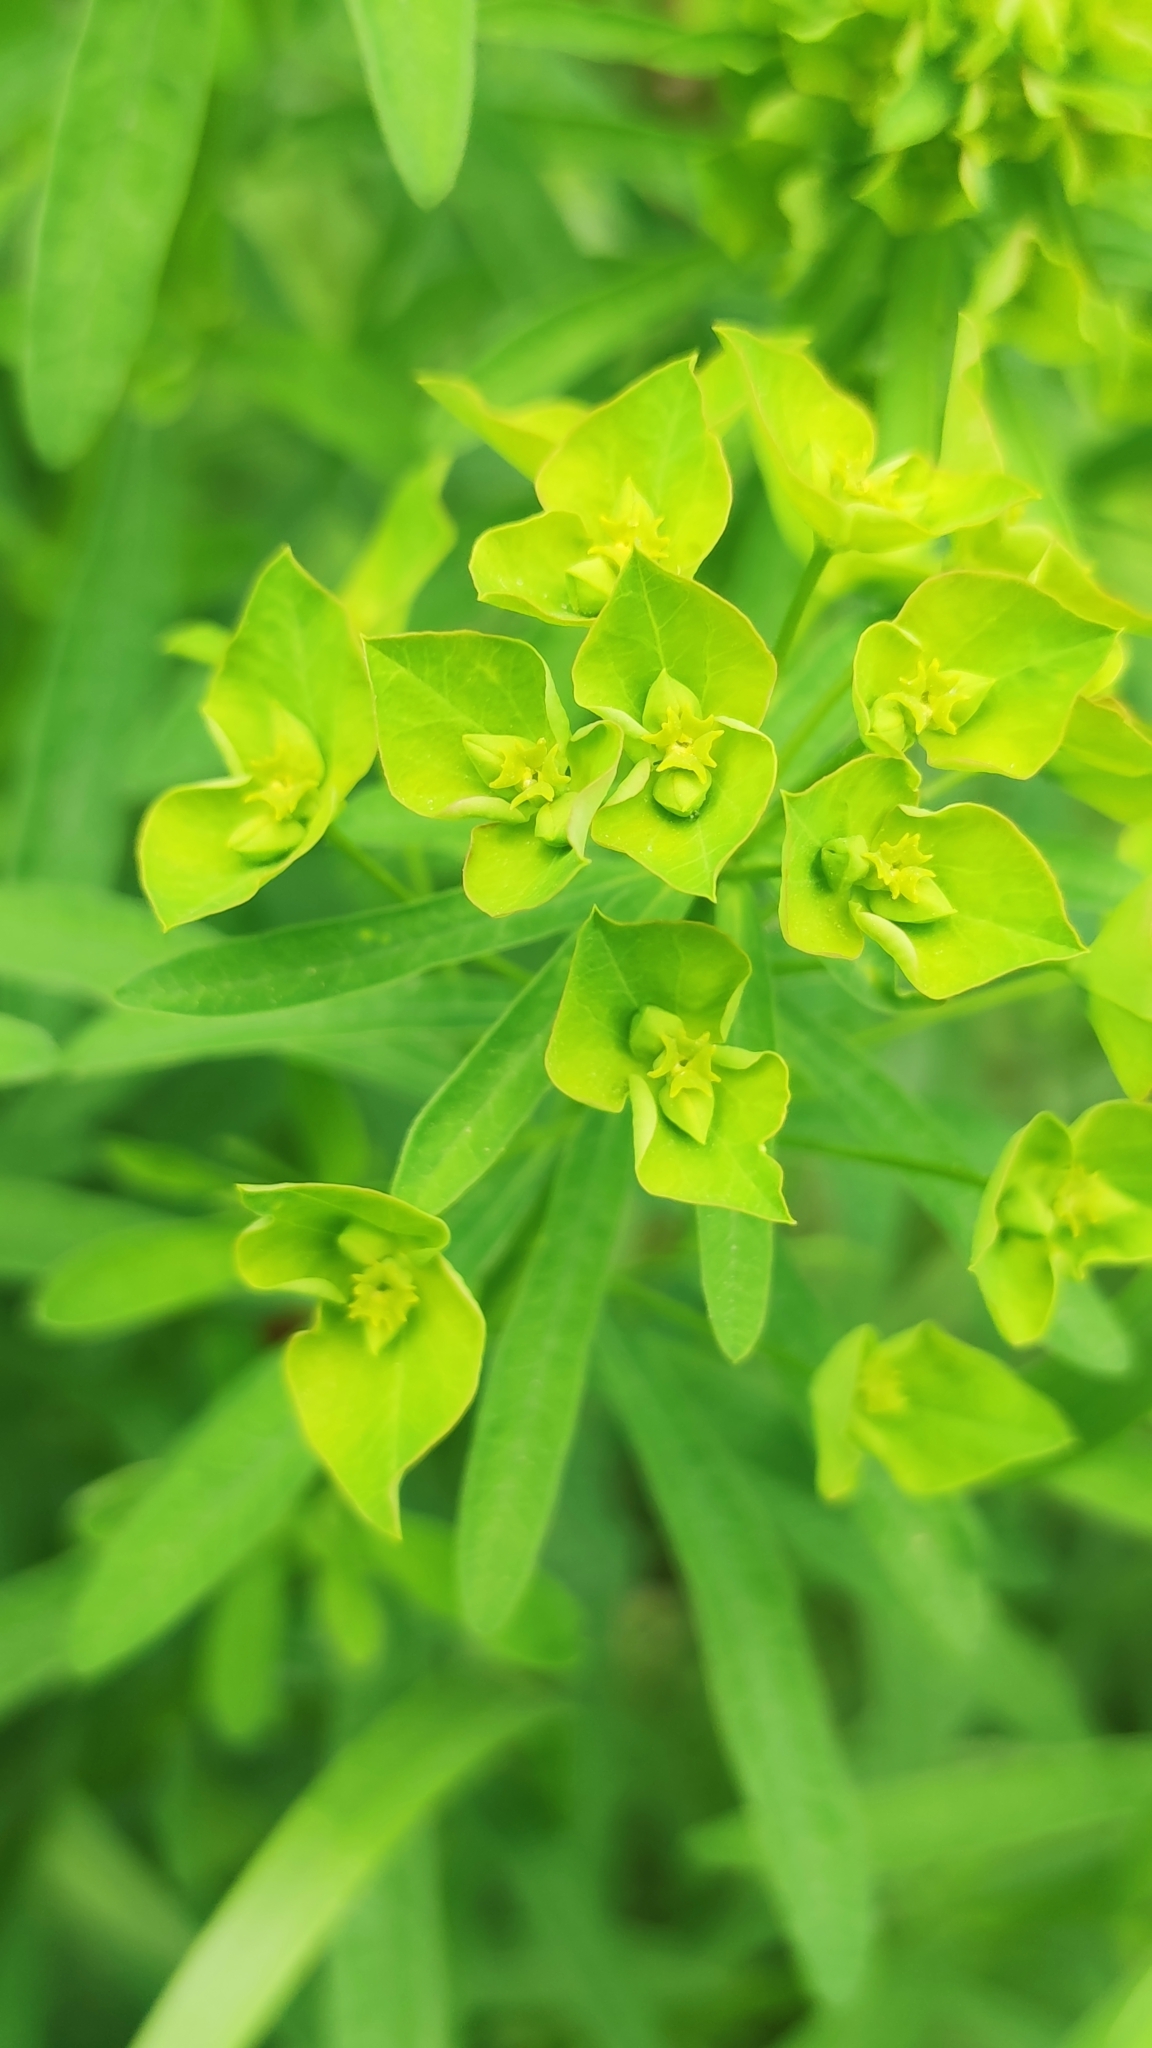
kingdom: Plantae
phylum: Tracheophyta
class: Magnoliopsida
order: Malpighiales
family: Euphorbiaceae
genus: Euphorbia
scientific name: Euphorbia esula
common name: Leafy spurge
